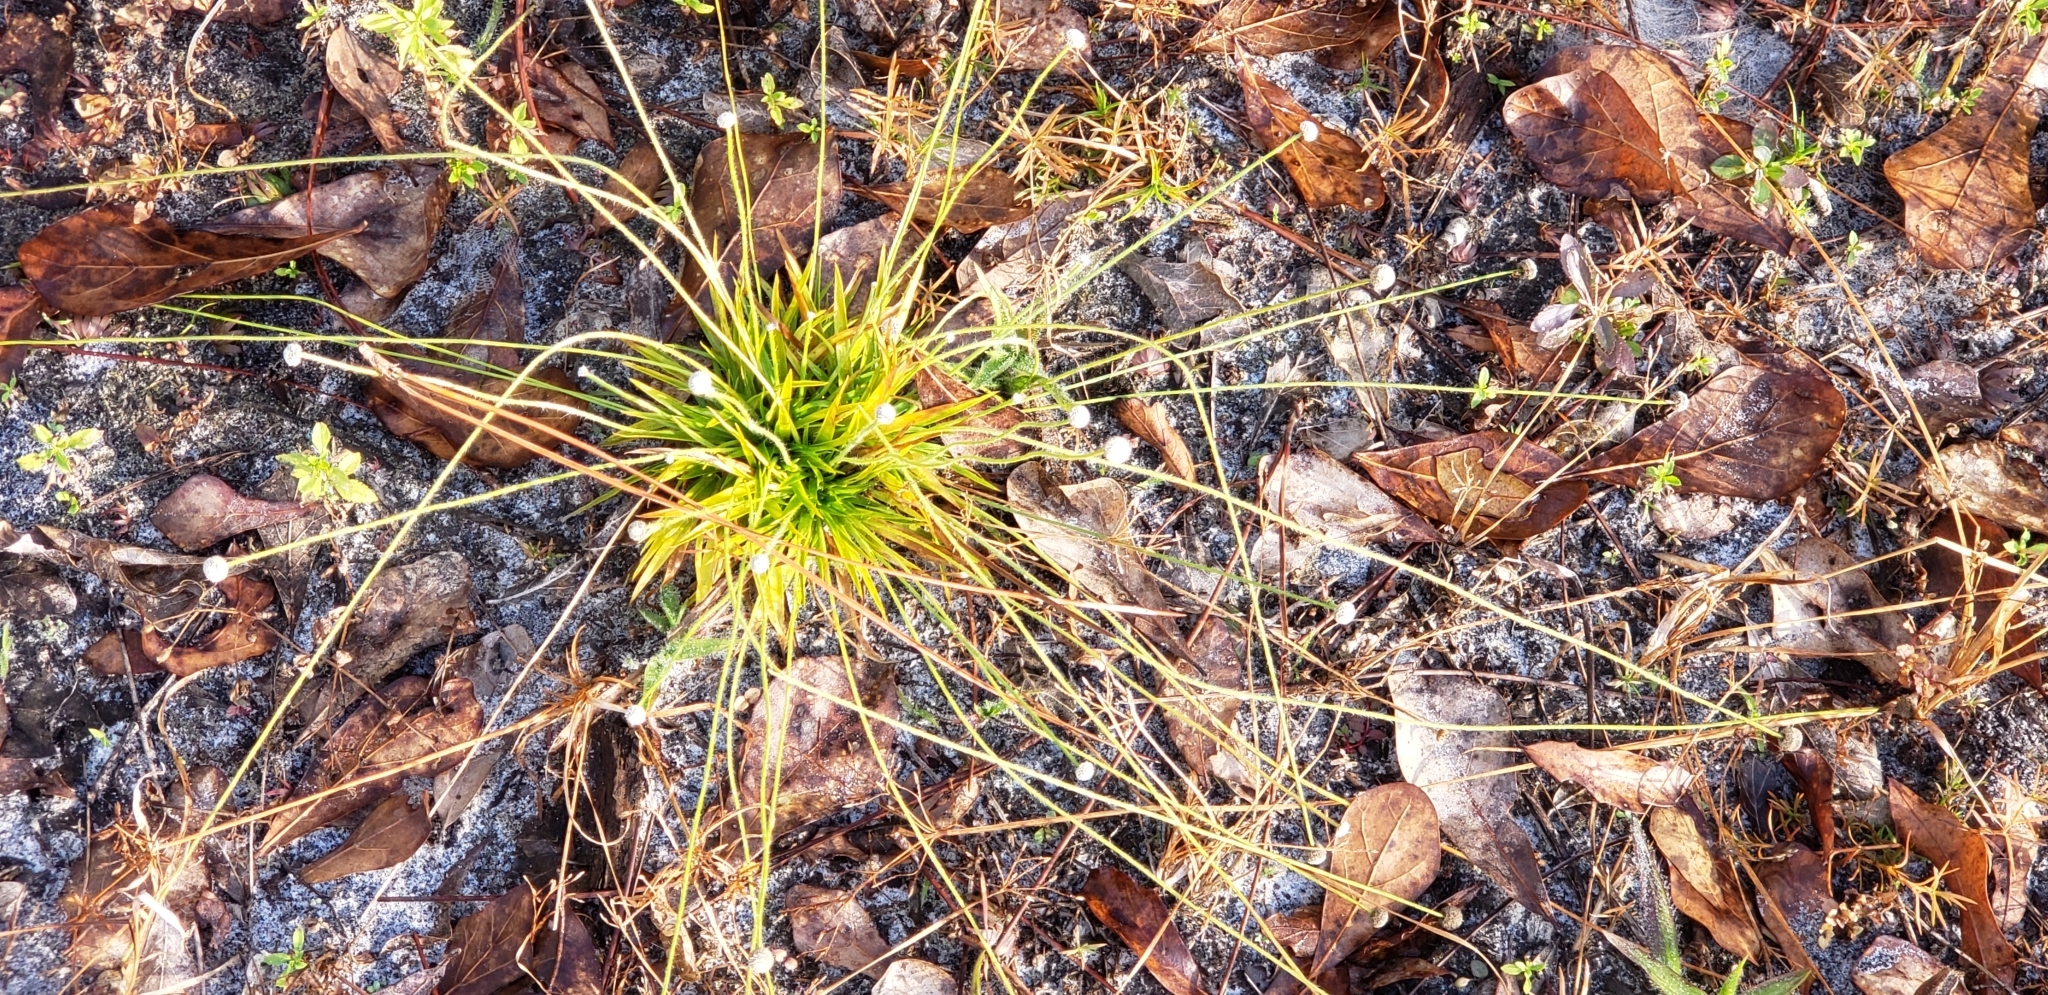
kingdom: Plantae
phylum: Tracheophyta
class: Liliopsida
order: Poales
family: Eriocaulaceae
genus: Paepalanthus
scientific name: Paepalanthus anceps
